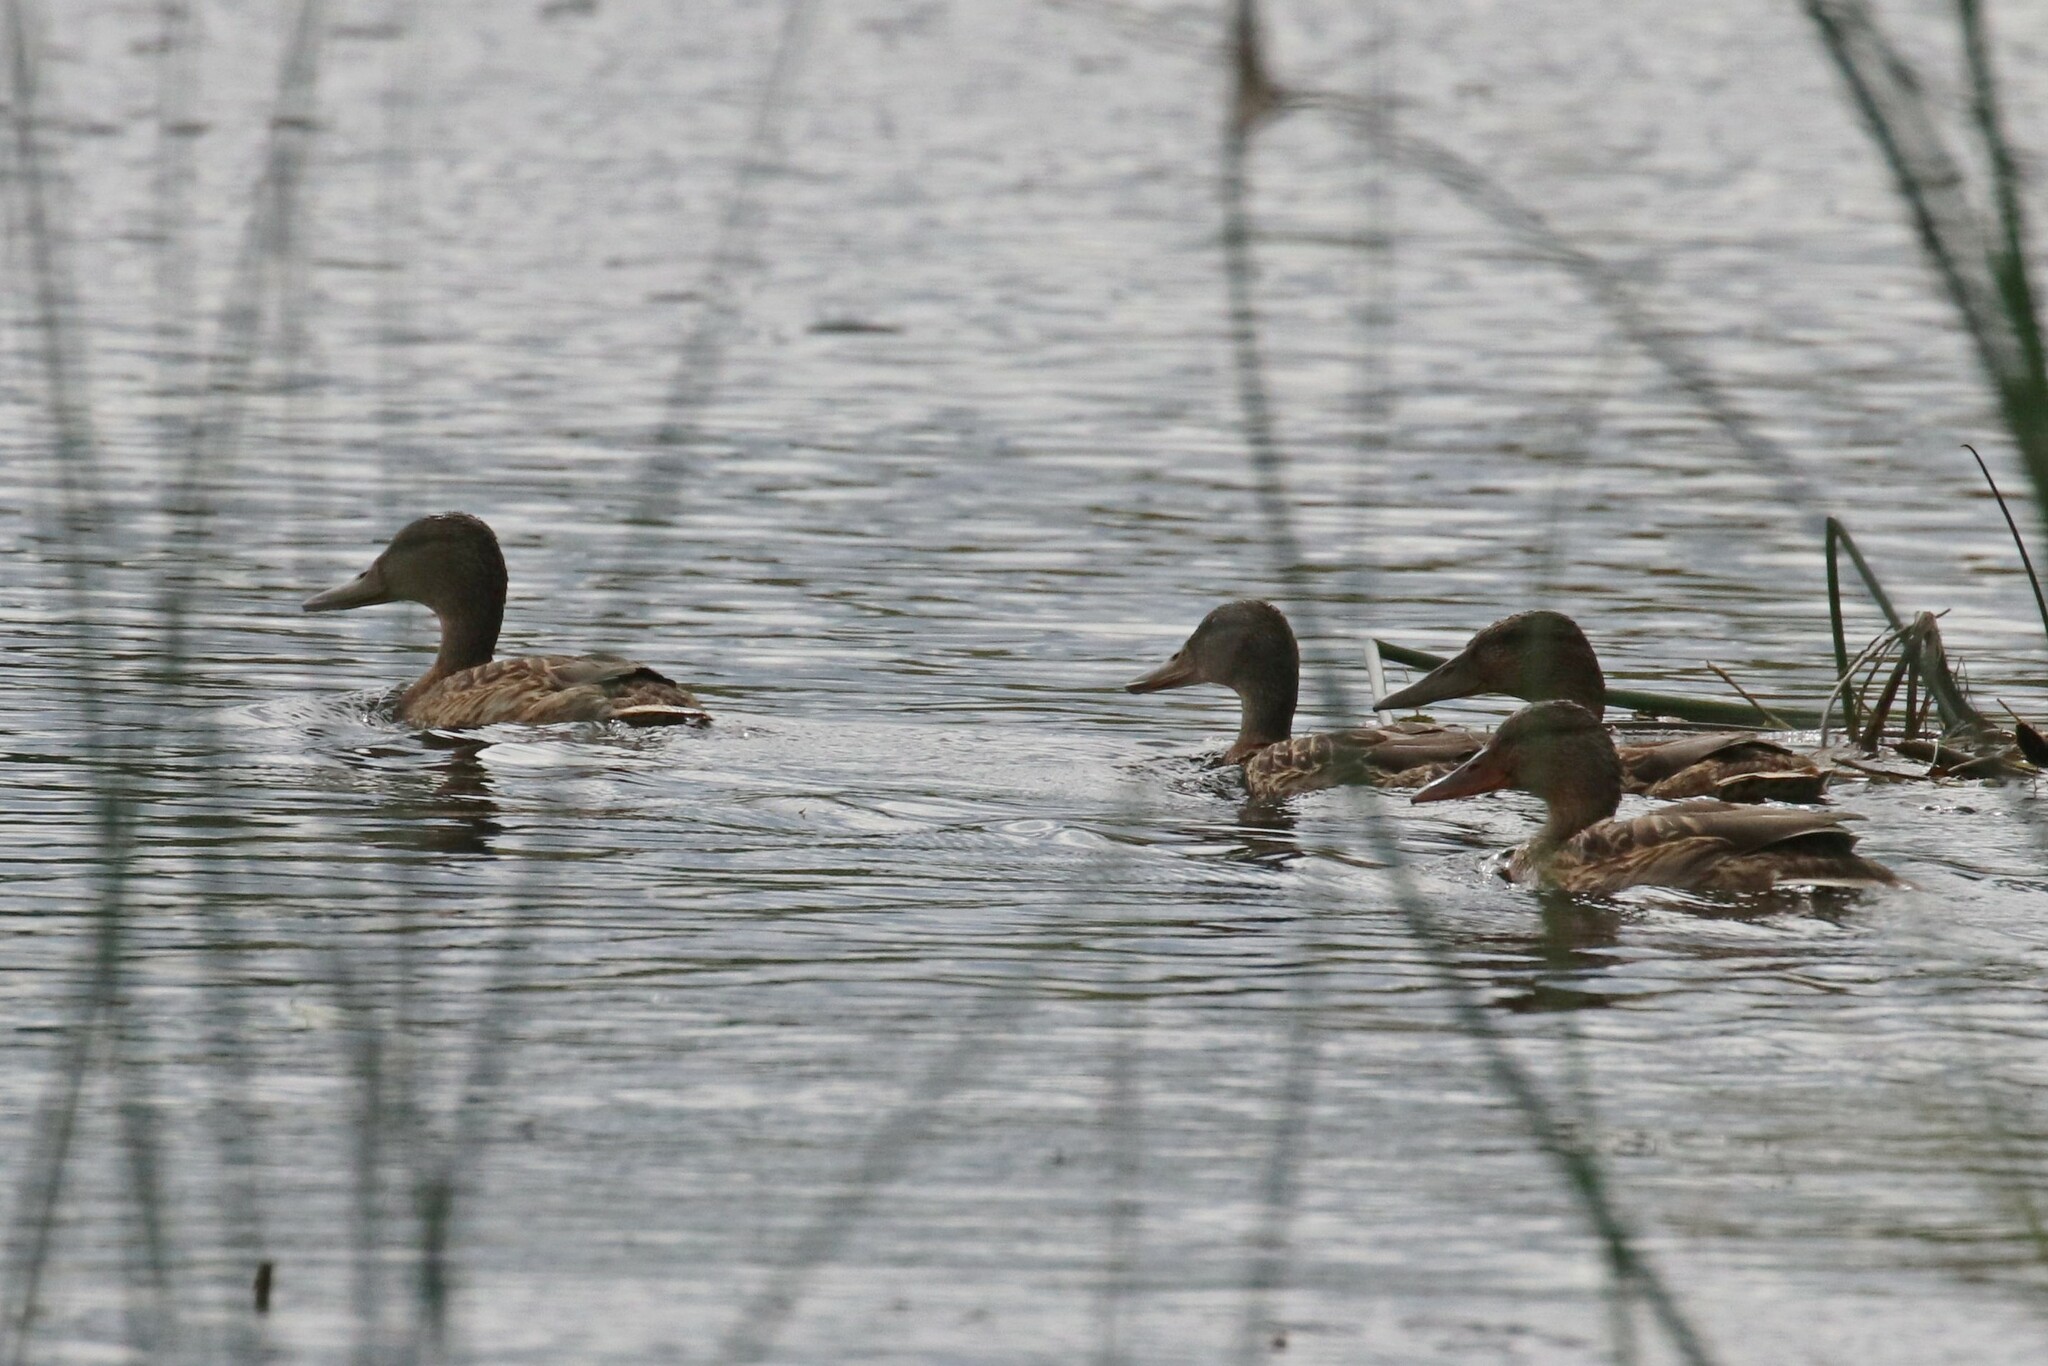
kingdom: Animalia
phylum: Chordata
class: Aves
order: Anseriformes
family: Anatidae
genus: Anas
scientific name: Anas platyrhynchos
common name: Mallard
